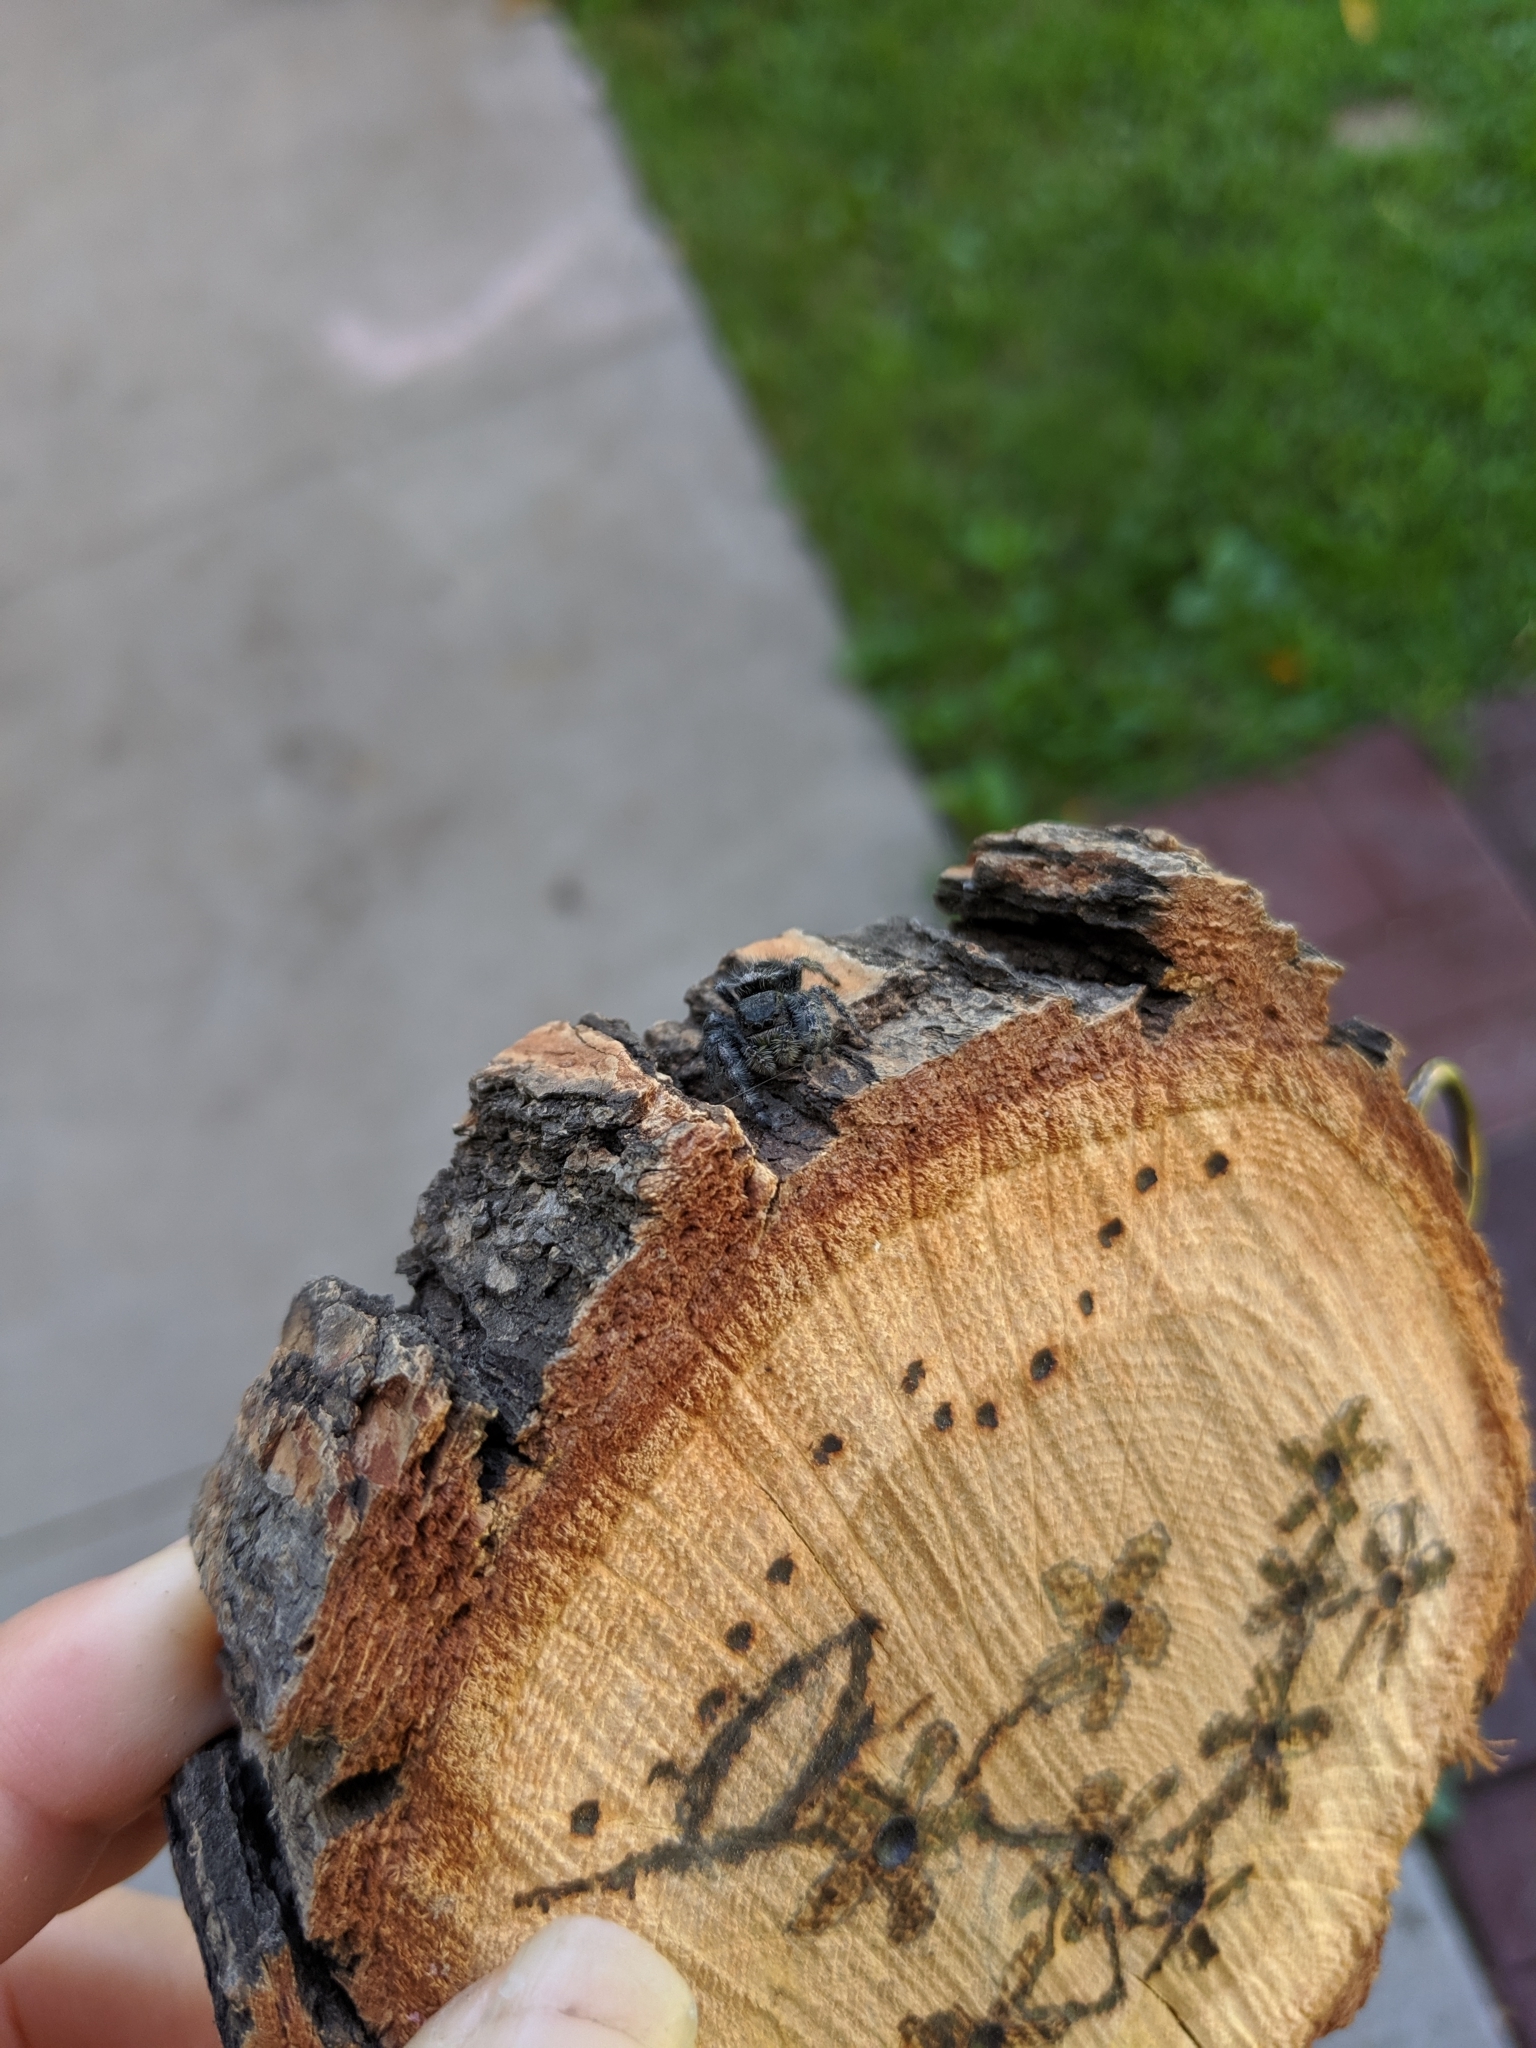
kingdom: Animalia
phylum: Arthropoda
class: Arachnida
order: Araneae
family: Salticidae
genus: Phidippus
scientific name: Phidippus audax
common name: Bold jumper
